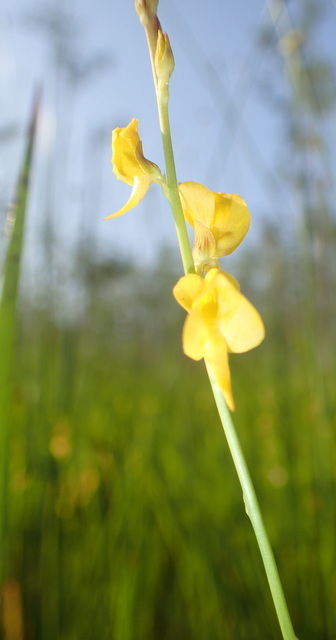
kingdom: Plantae
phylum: Tracheophyta
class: Magnoliopsida
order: Lamiales
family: Lentibulariaceae
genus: Utricularia
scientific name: Utricularia juncea
